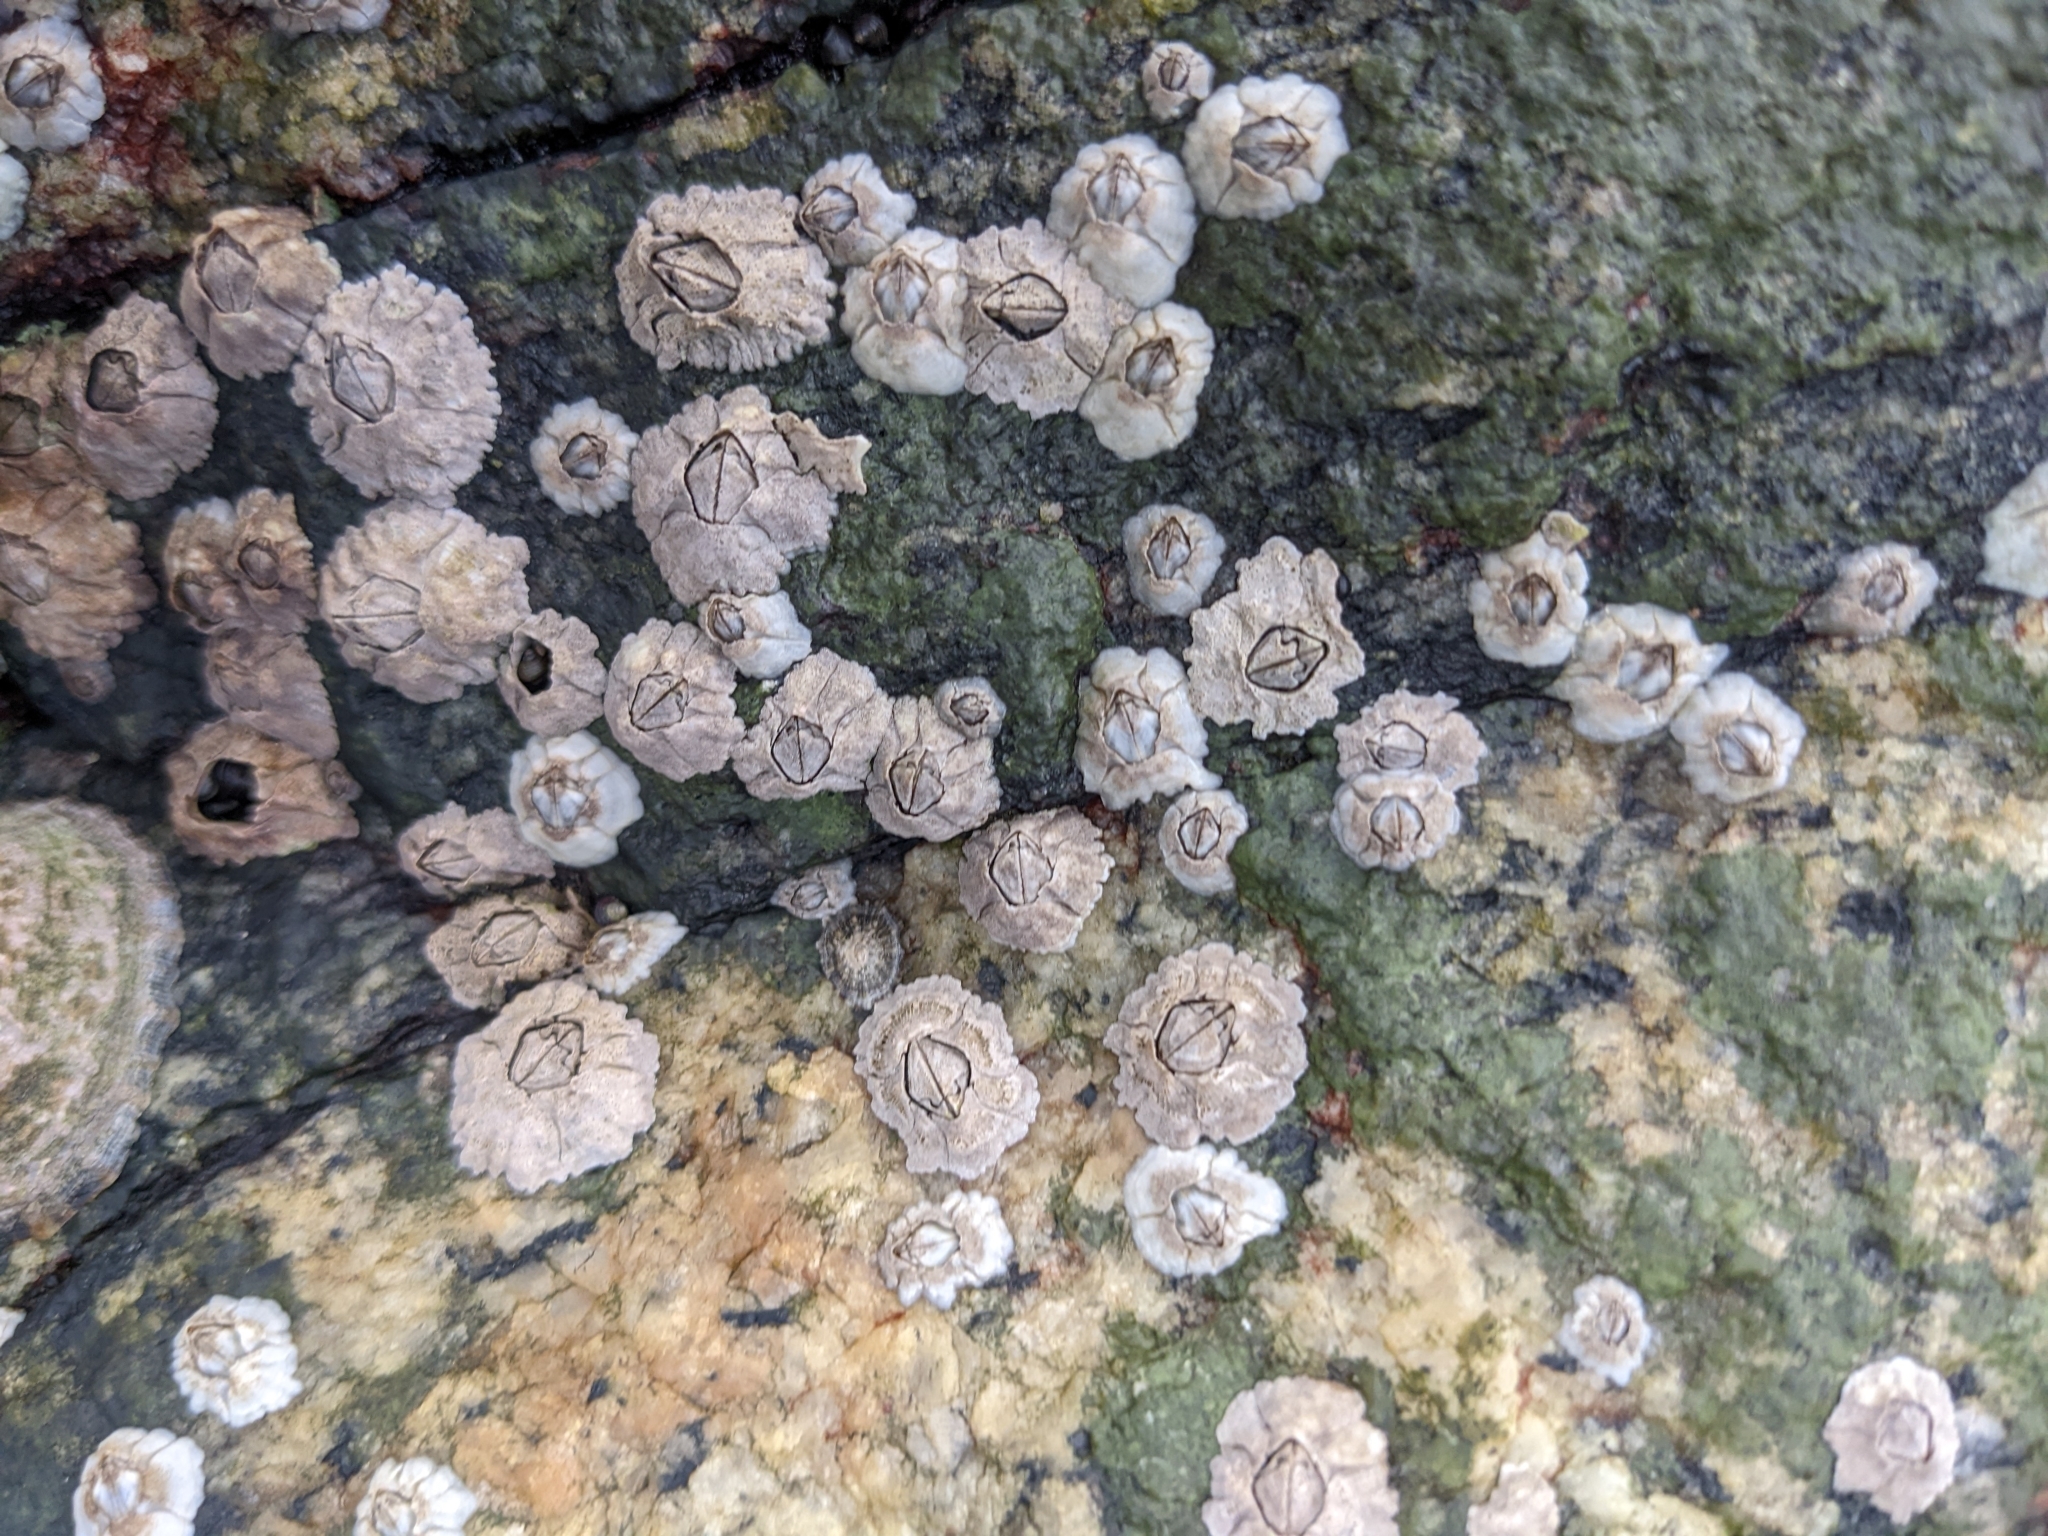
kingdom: Animalia
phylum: Arthropoda
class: Maxillopoda
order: Sessilia
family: Archaeobalanidae
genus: Semibalanus
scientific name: Semibalanus balanoides
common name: Acorn barnacle
